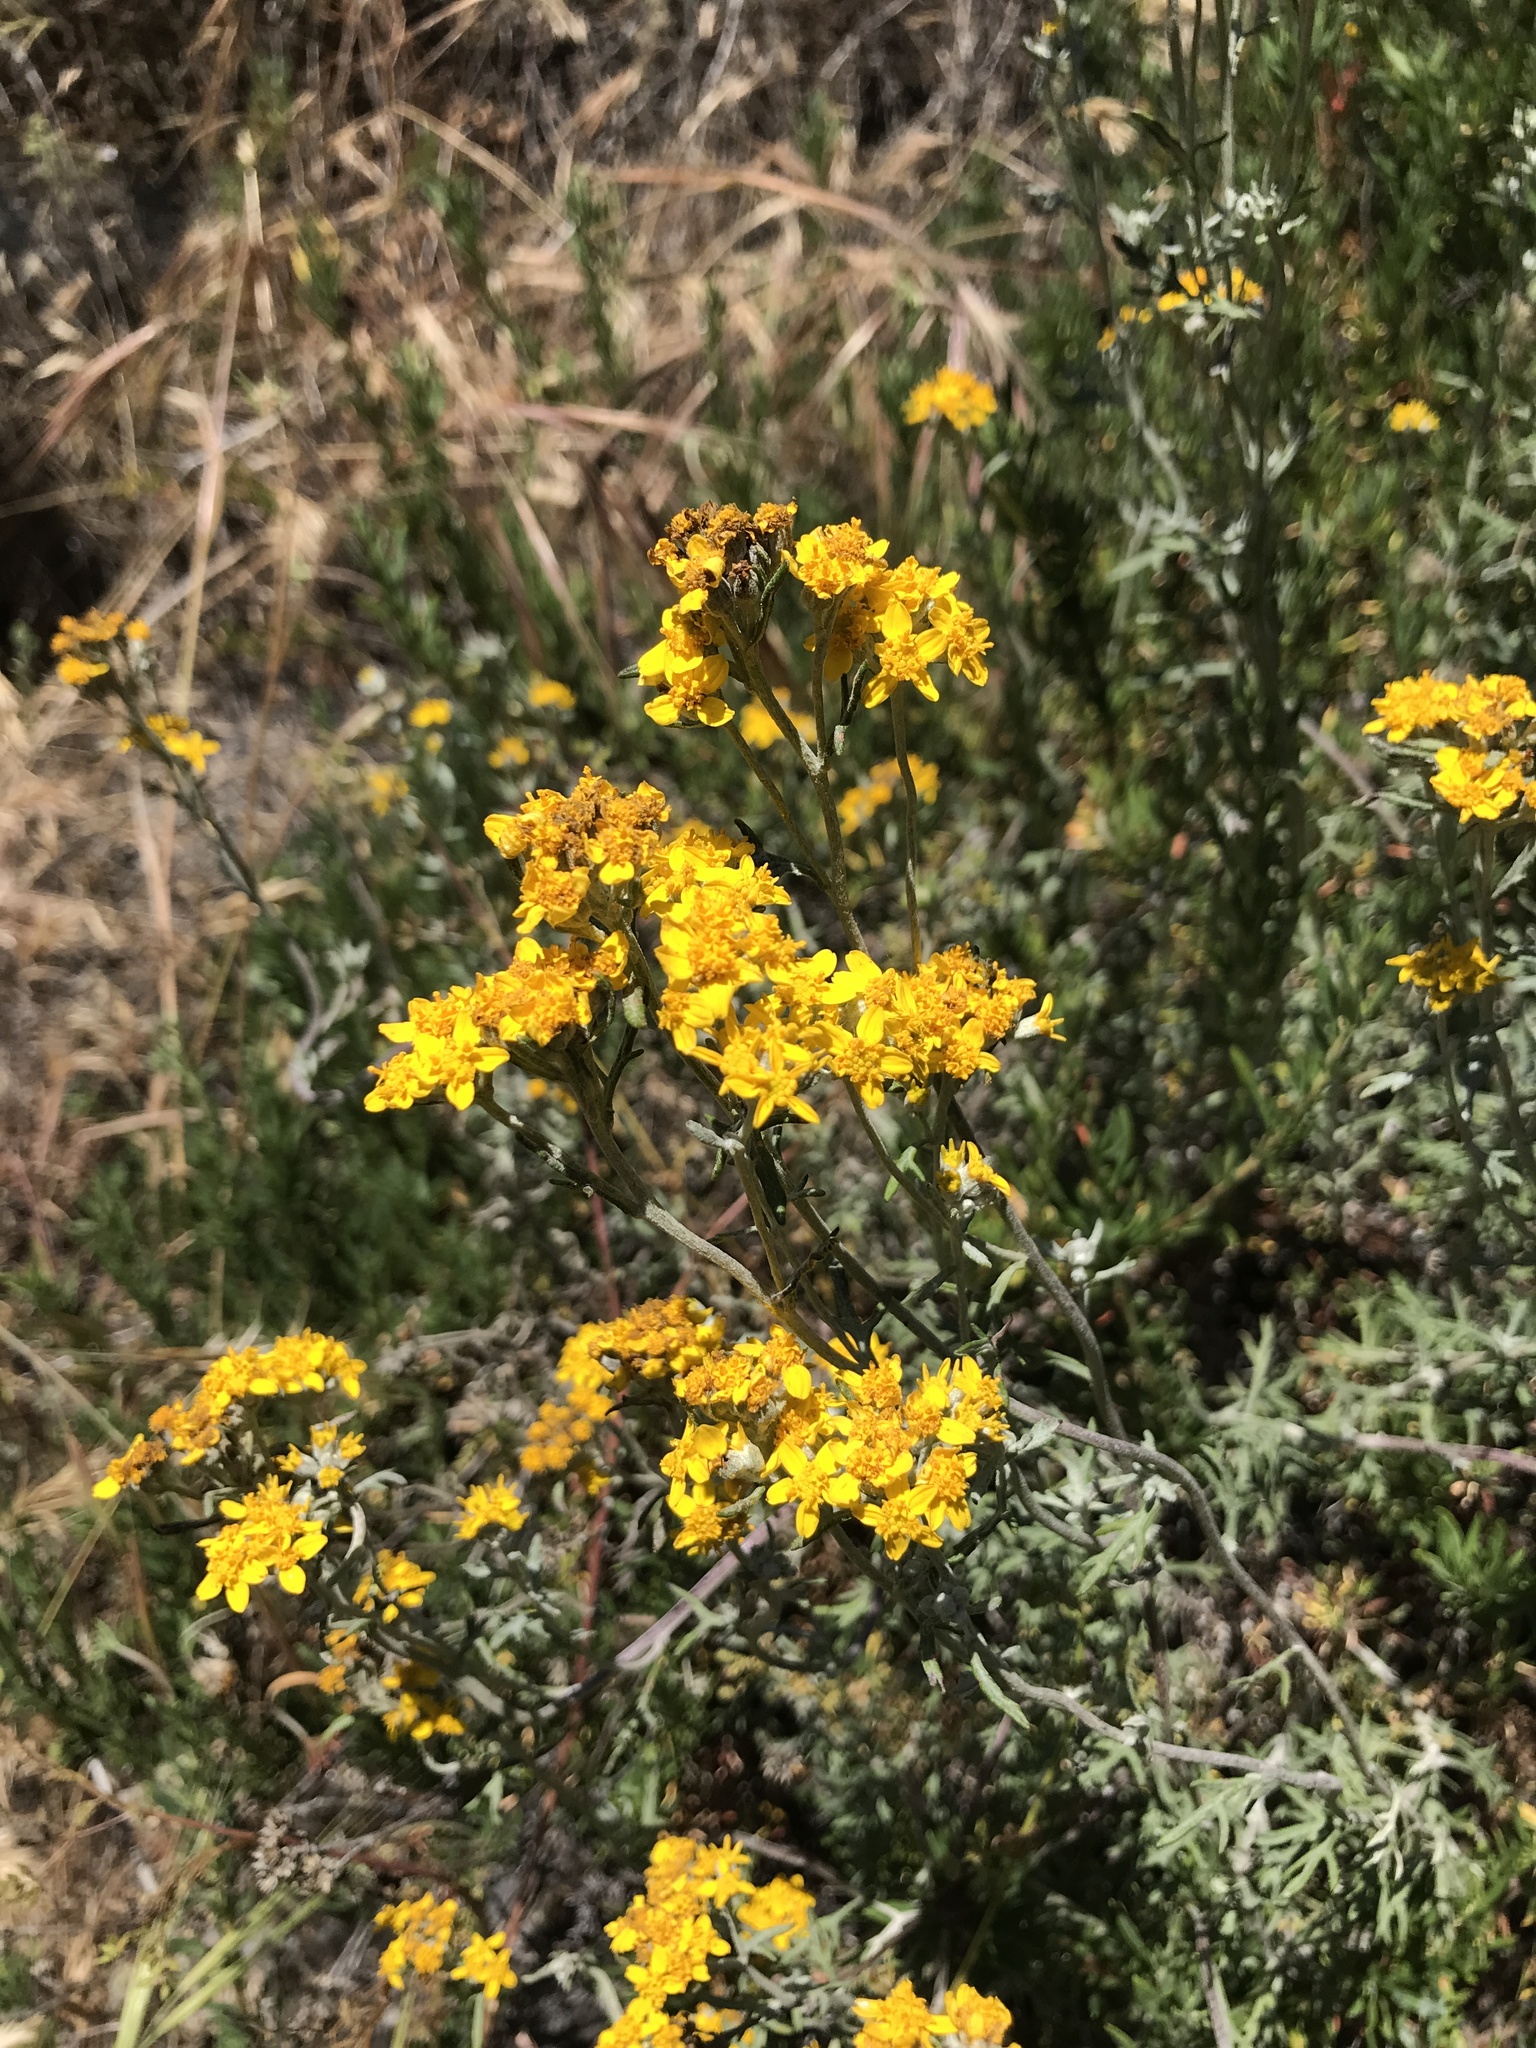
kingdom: Plantae
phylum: Tracheophyta
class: Magnoliopsida
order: Asterales
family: Asteraceae
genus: Eriophyllum
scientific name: Eriophyllum confertiflorum
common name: Golden-yarrow
